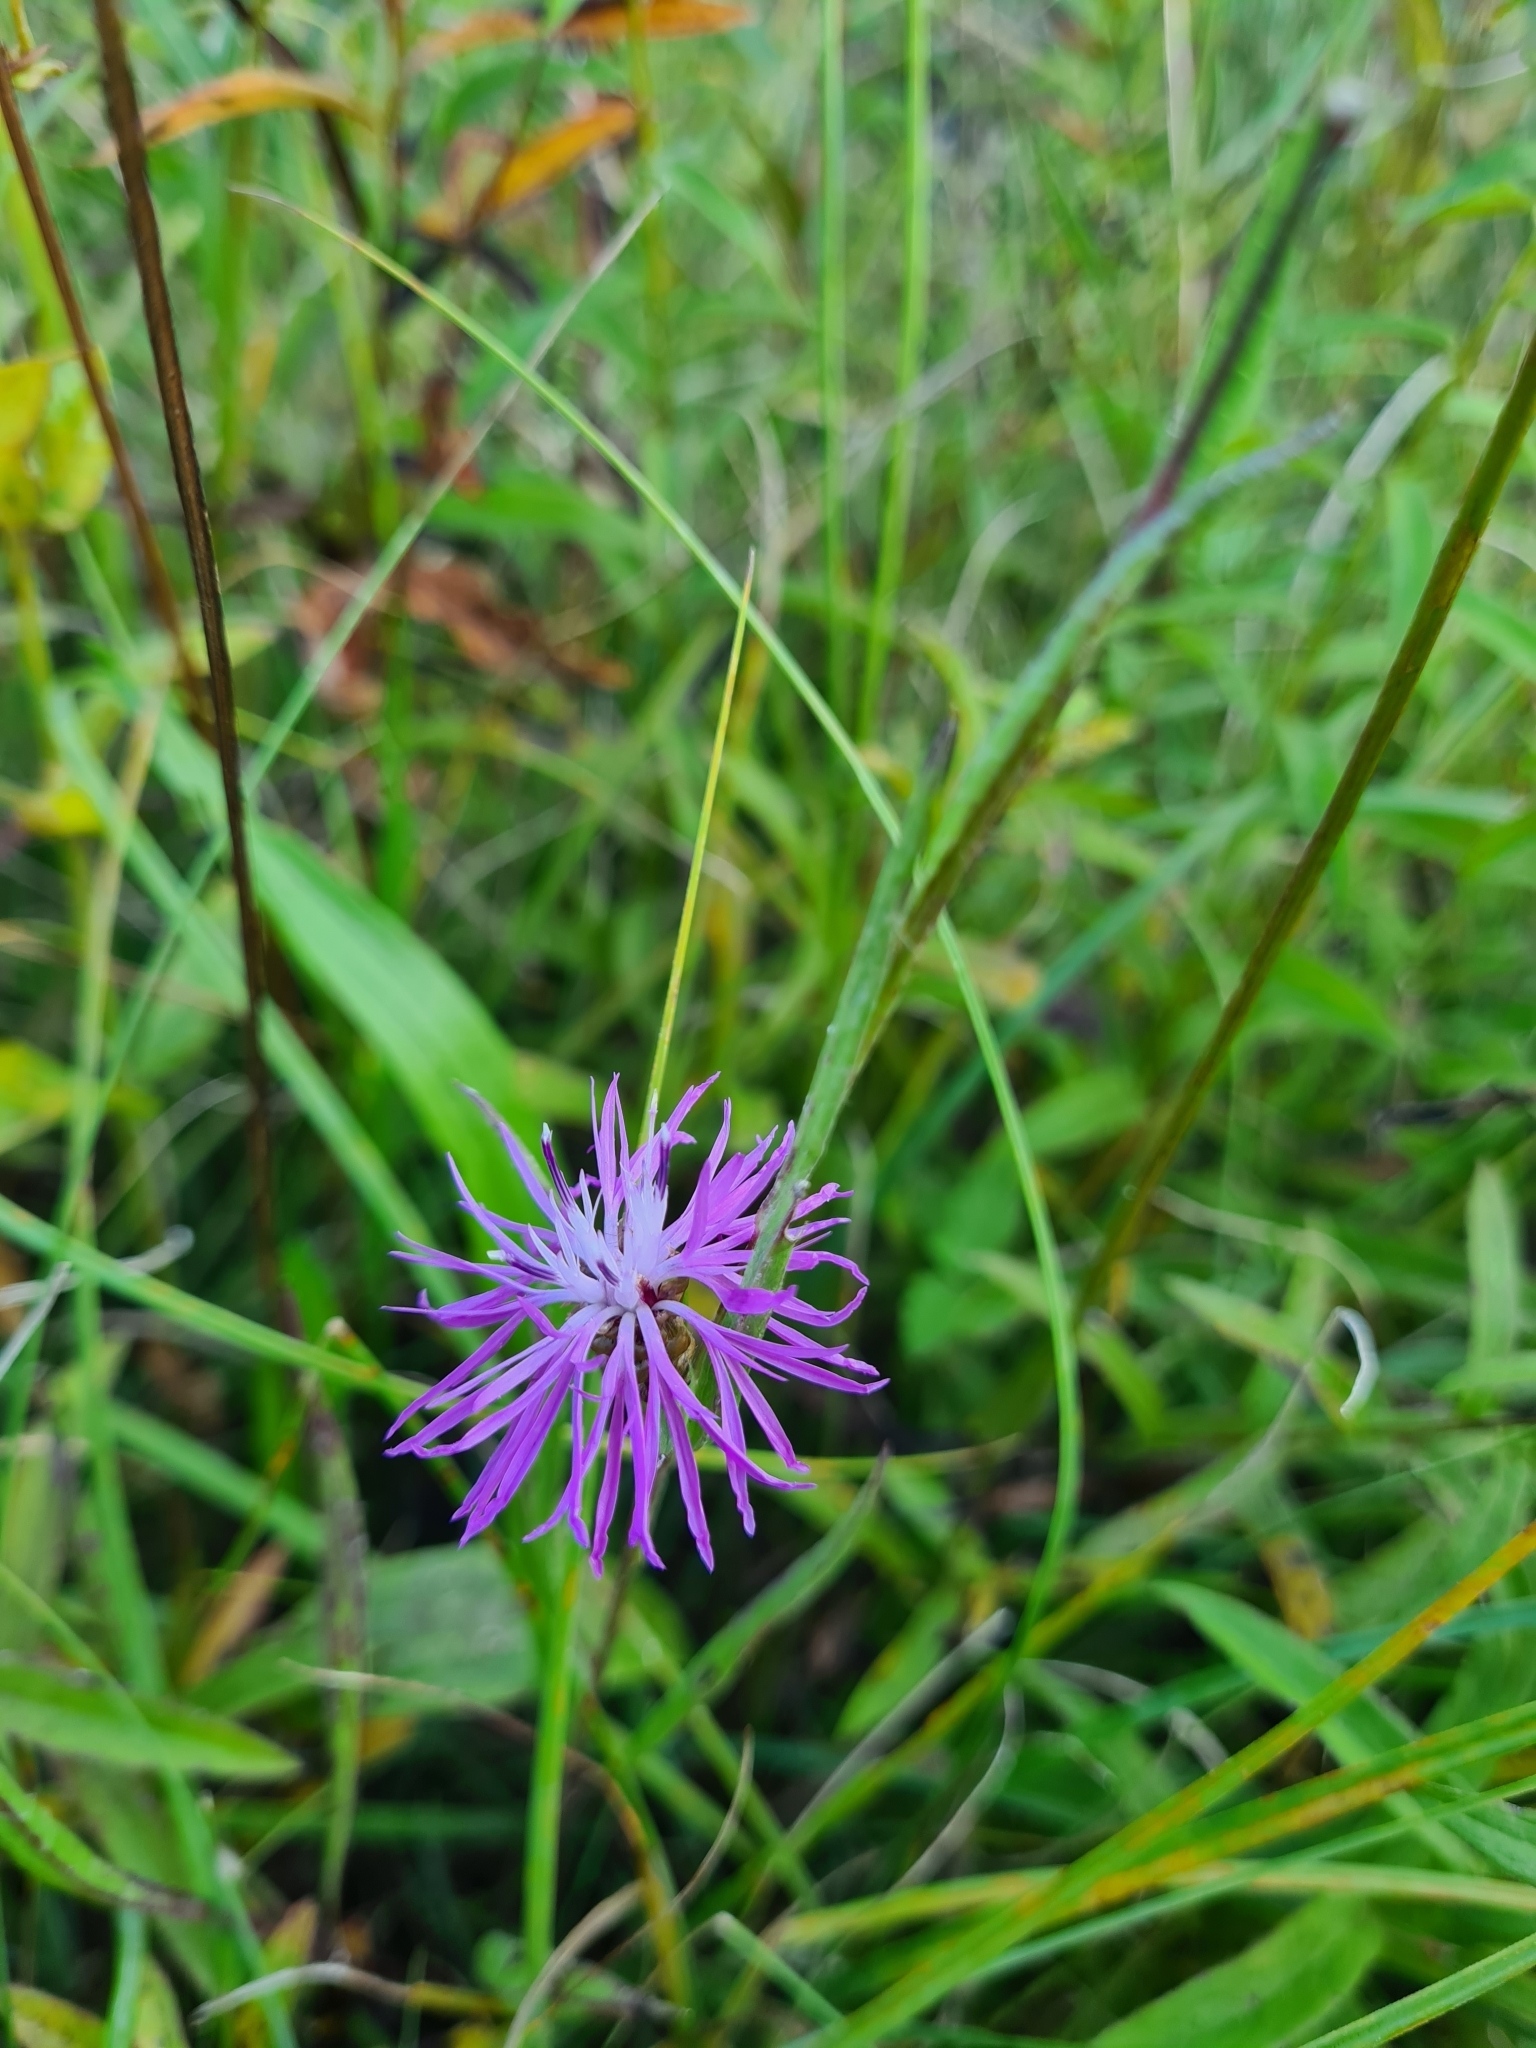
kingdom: Plantae
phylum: Tracheophyta
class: Magnoliopsida
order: Asterales
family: Asteraceae
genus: Centaurea
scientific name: Centaurea jacea
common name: Brown knapweed
